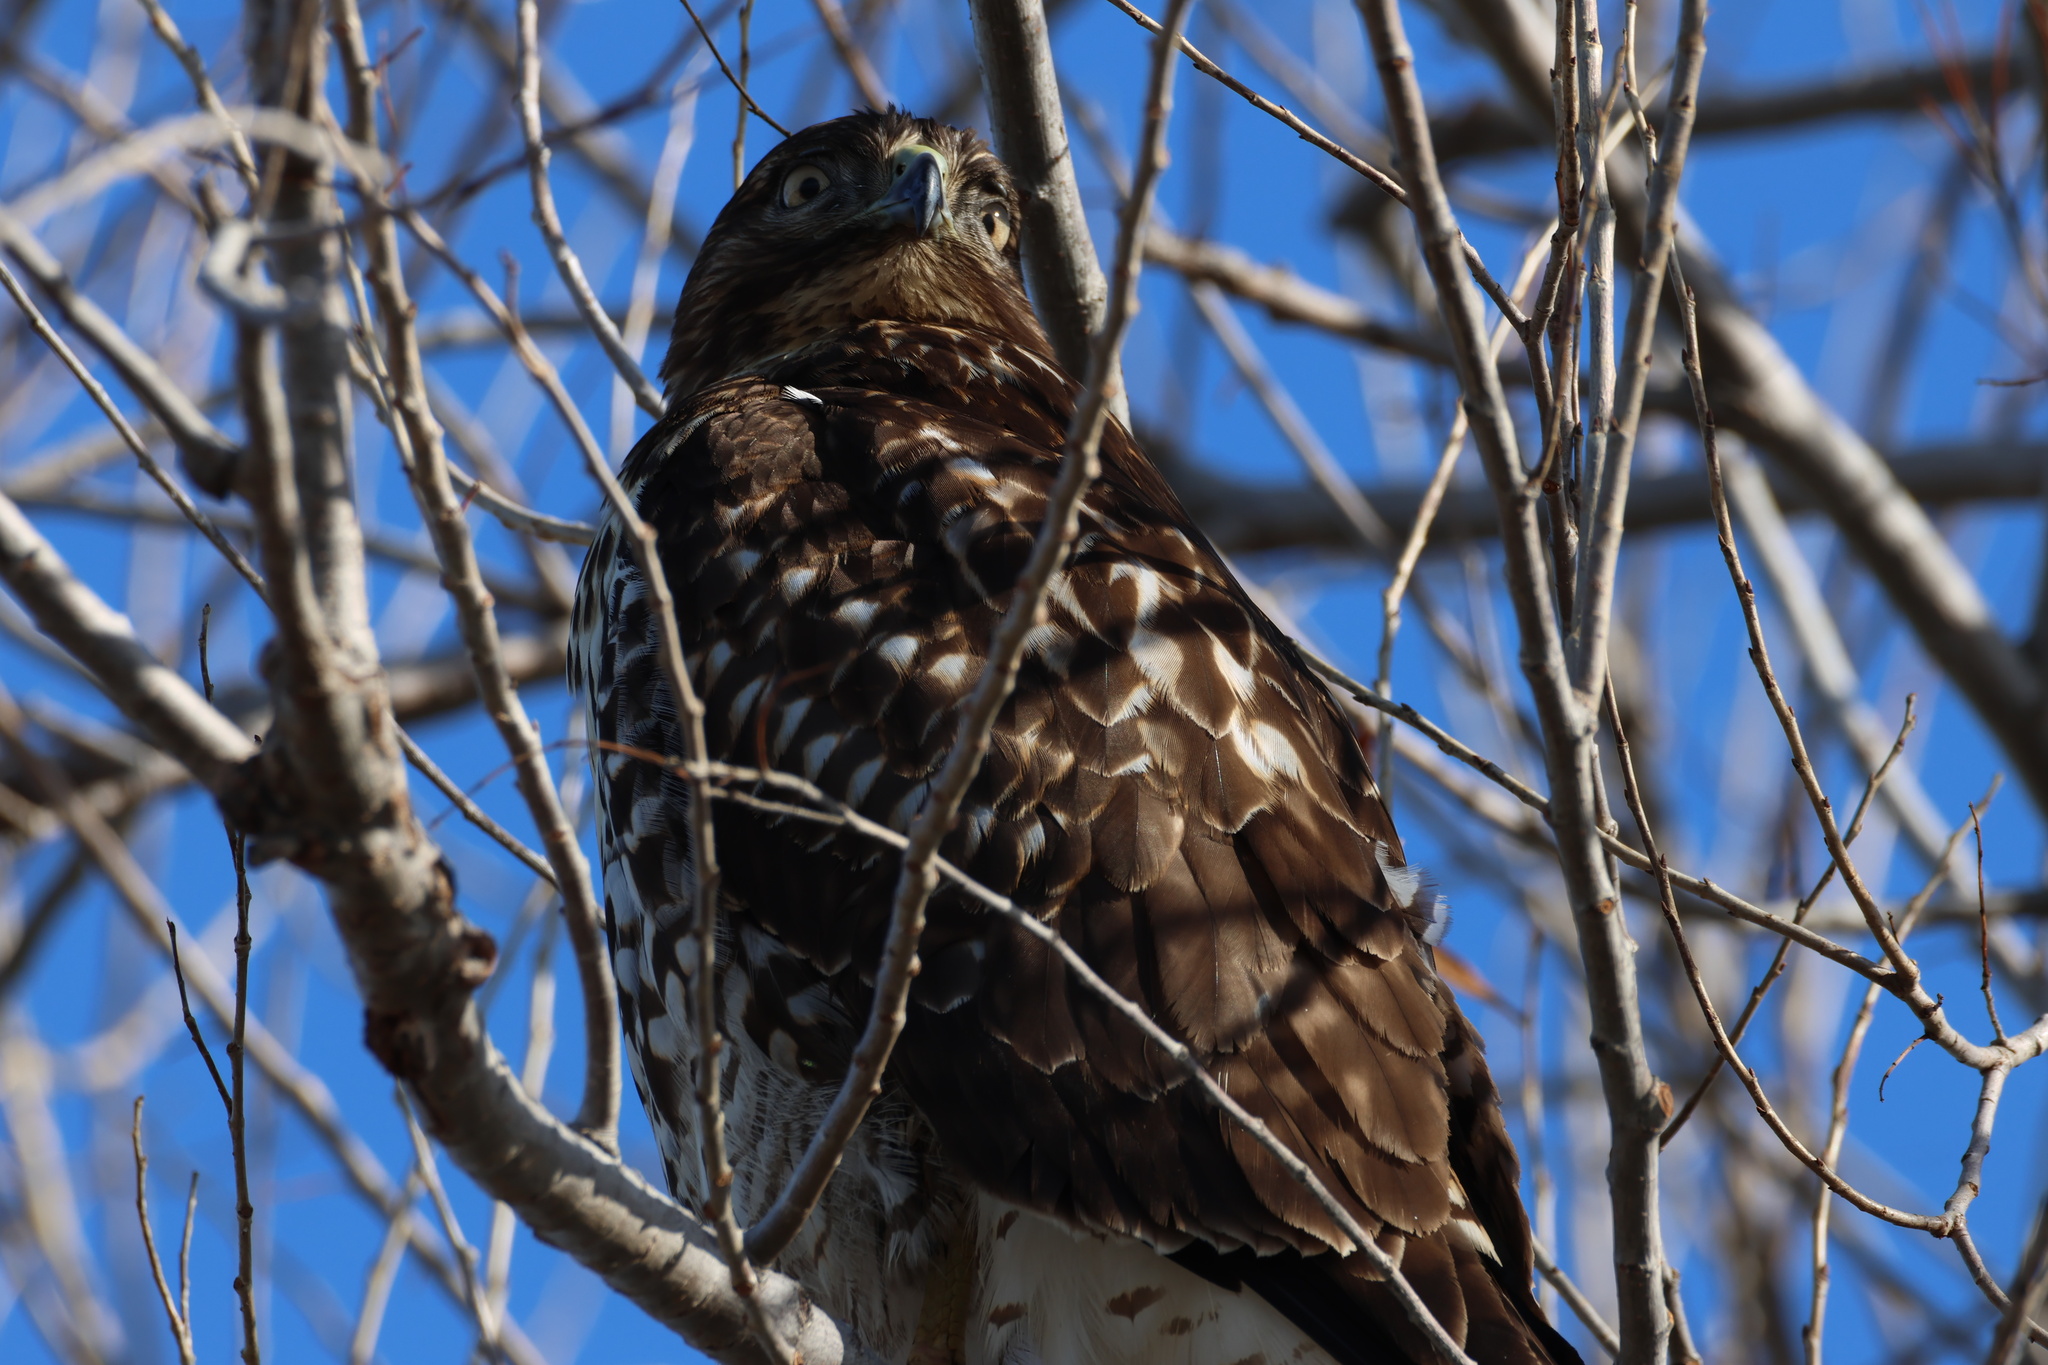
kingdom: Animalia
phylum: Chordata
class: Aves
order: Accipitriformes
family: Accipitridae
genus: Buteo
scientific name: Buteo jamaicensis
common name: Red-tailed hawk
